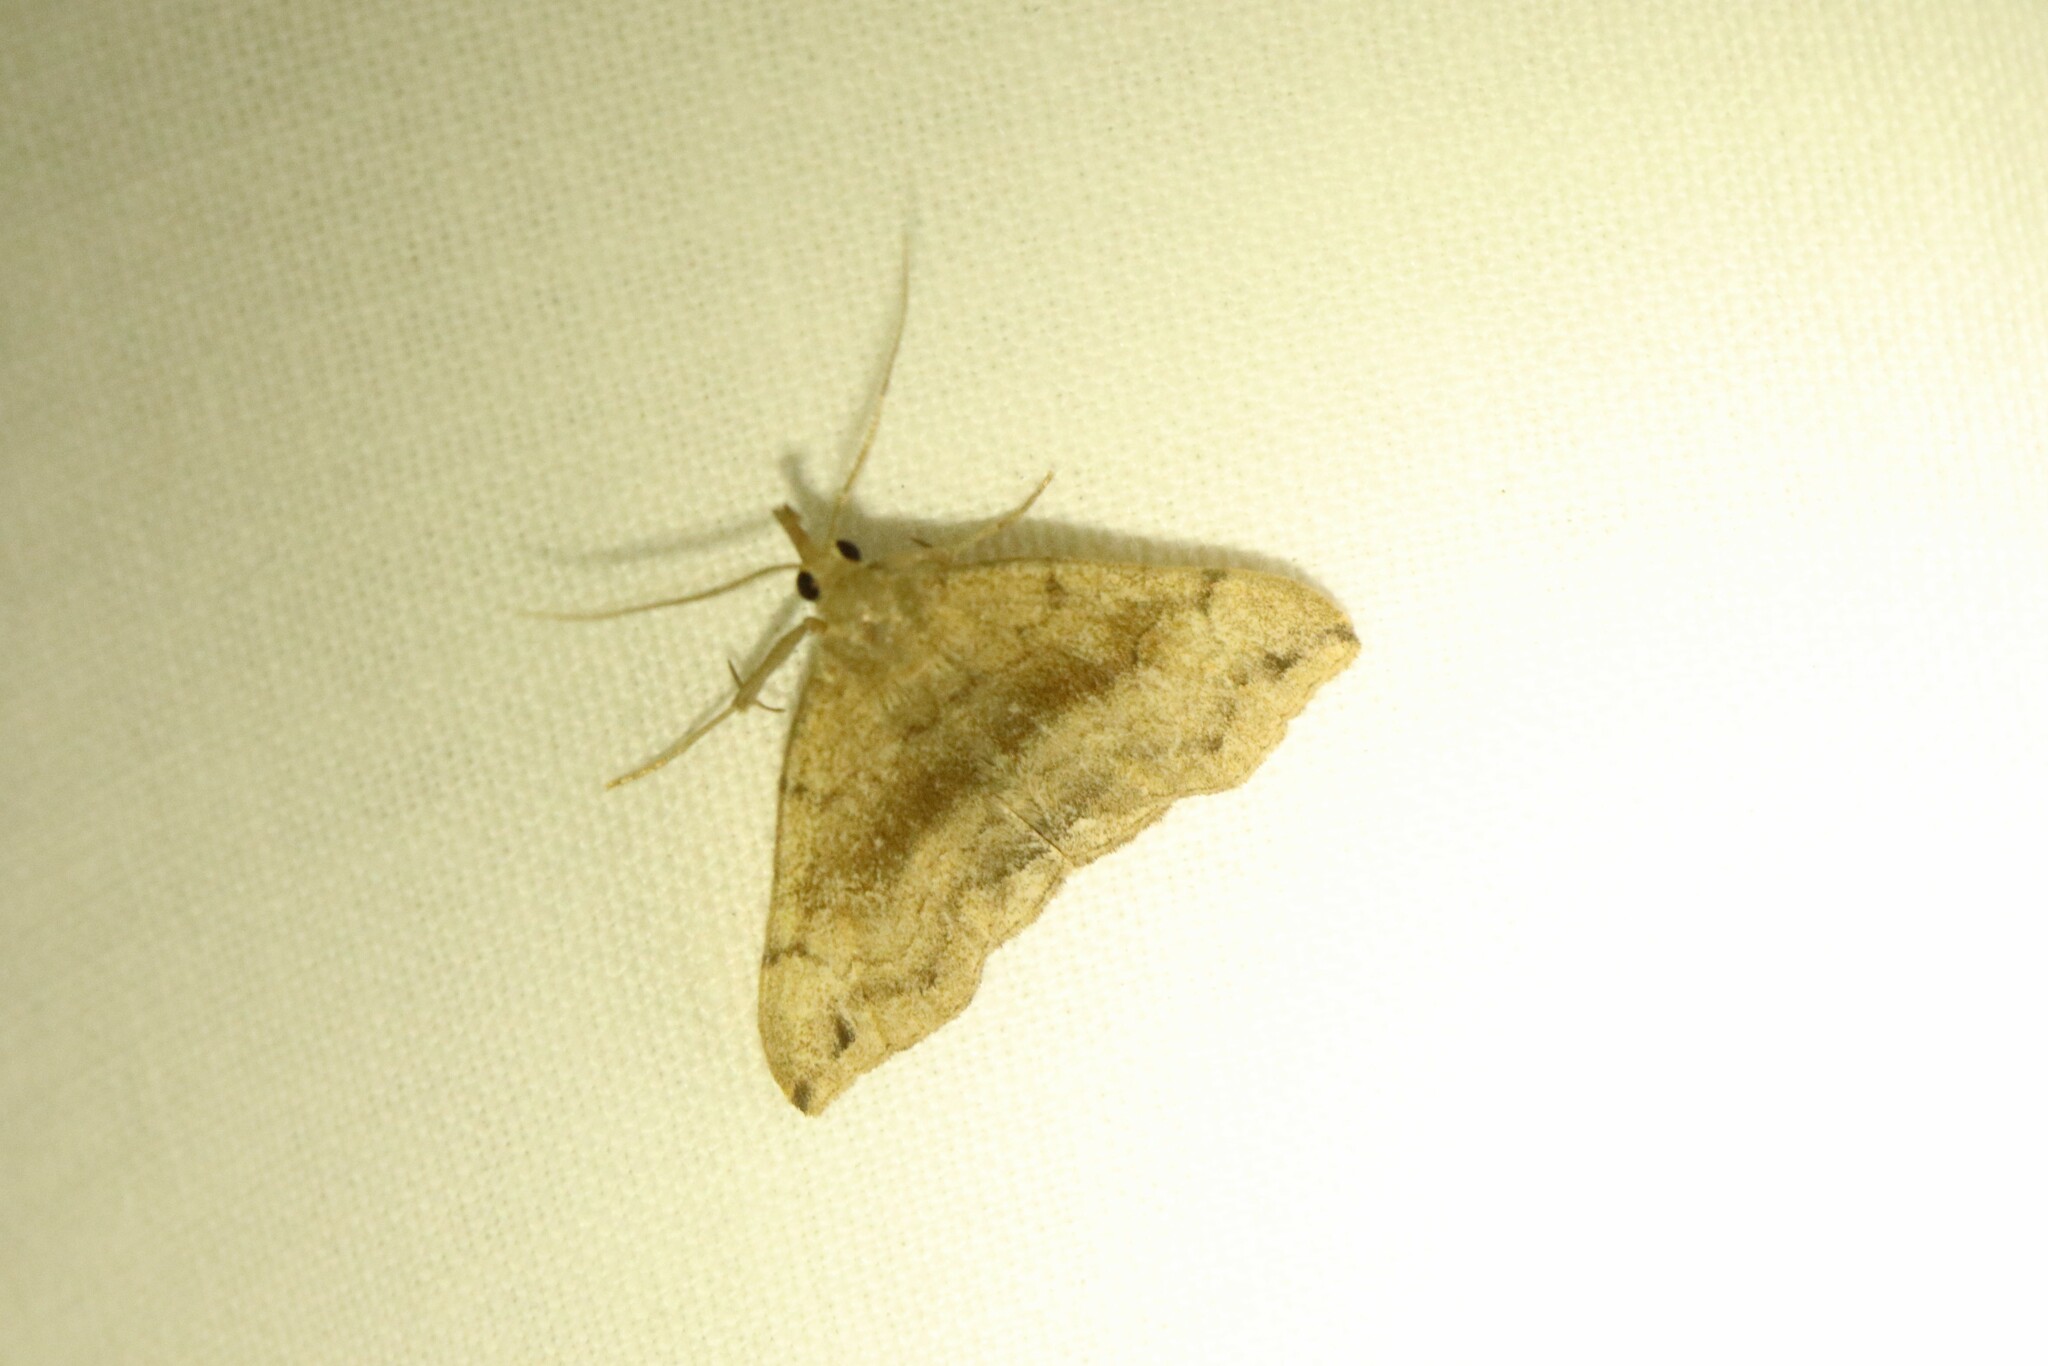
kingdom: Animalia
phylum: Arthropoda
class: Insecta
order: Lepidoptera
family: Erebidae
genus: Phalaenostola
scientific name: Phalaenostola eumelusalis
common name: Dark phalaenostola moth
